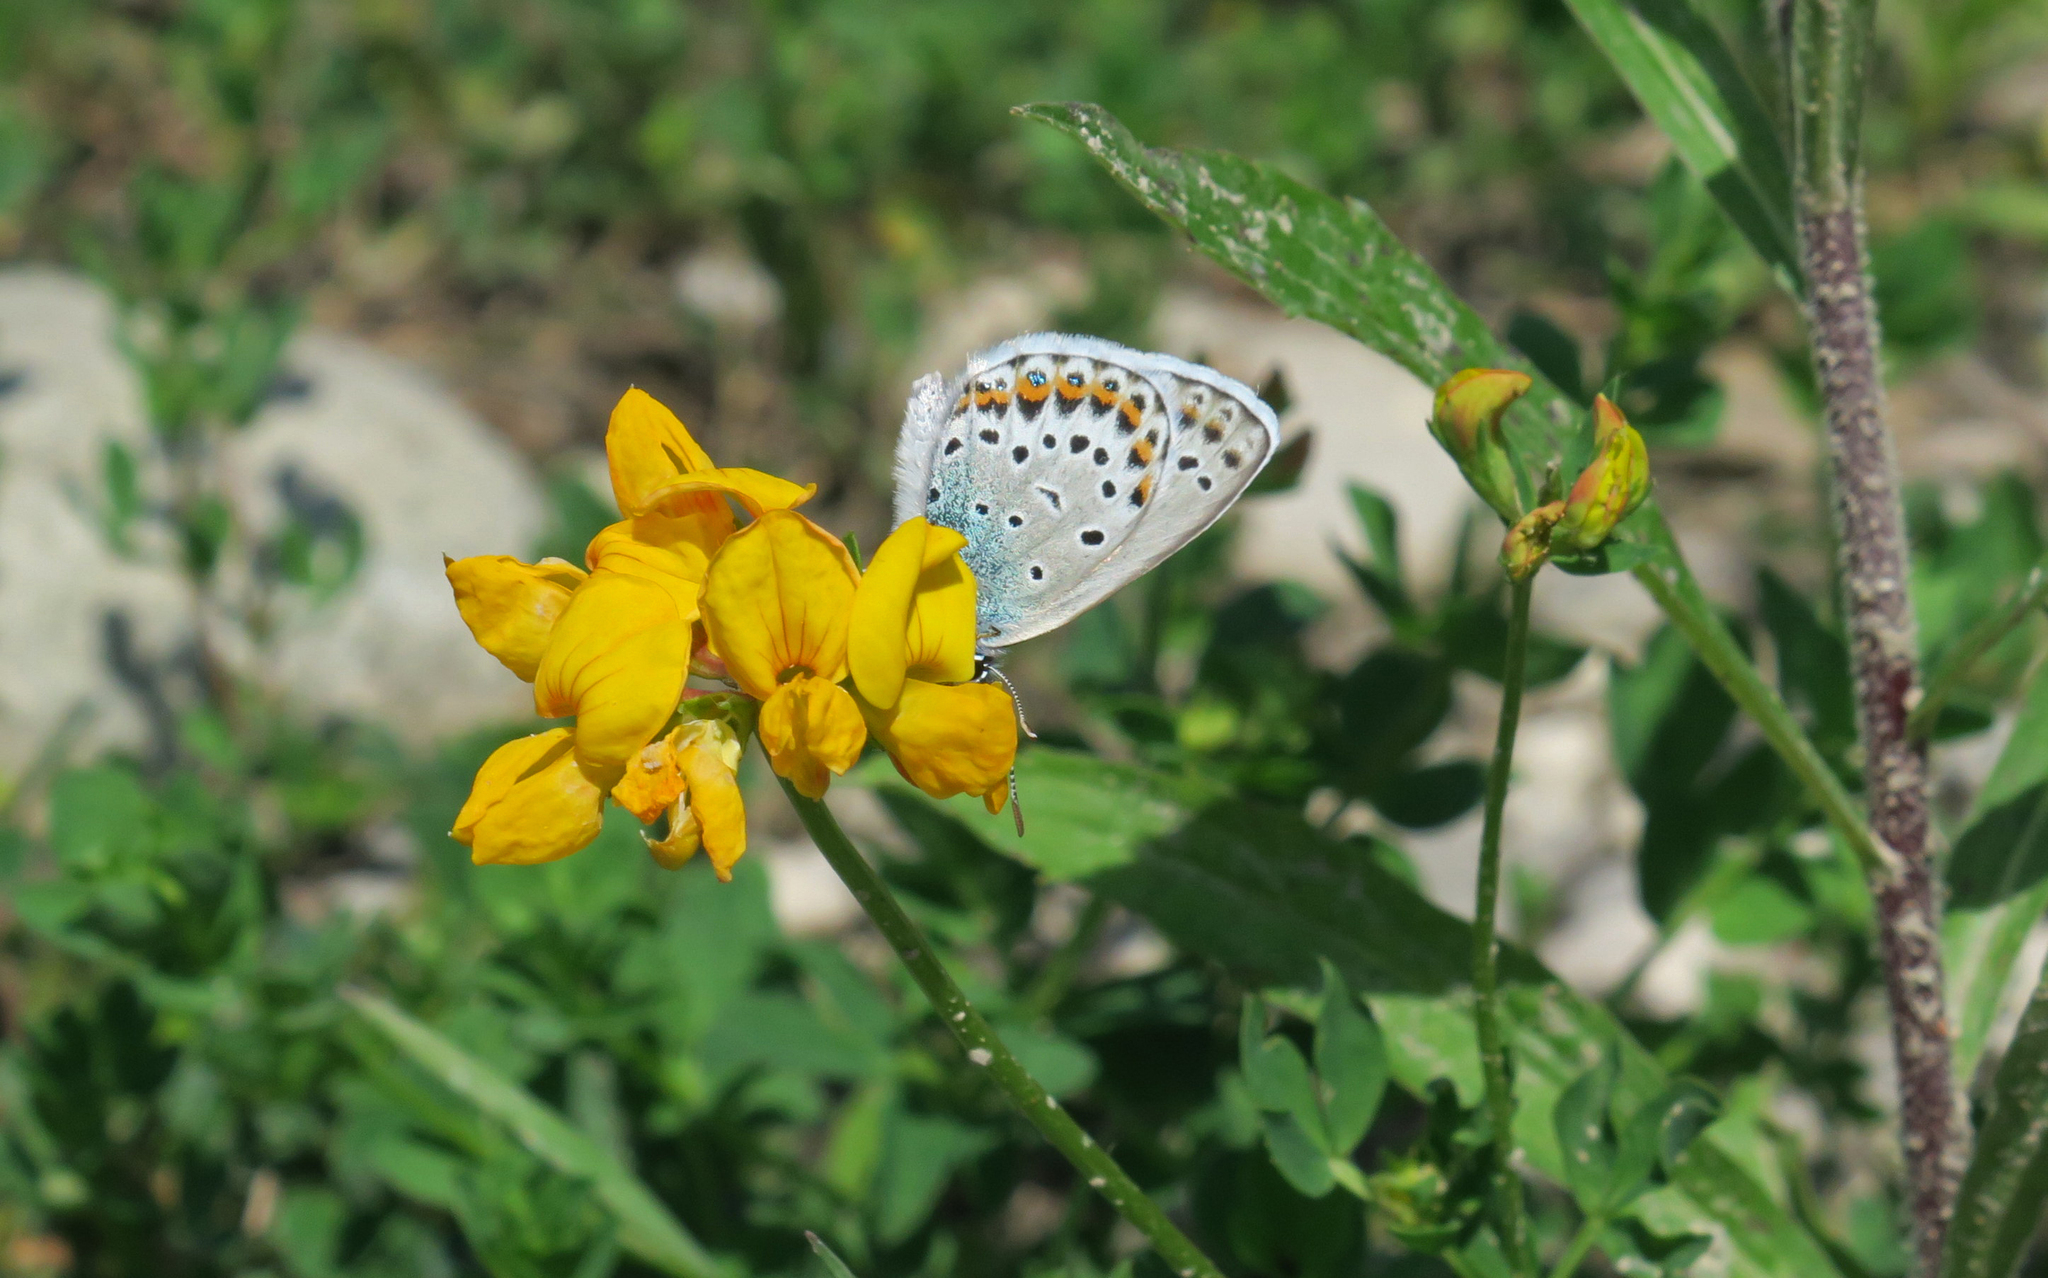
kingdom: Animalia
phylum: Arthropoda
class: Insecta
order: Lepidoptera
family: Lycaenidae
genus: Lycaeides
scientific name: Lycaeides idas
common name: Northern blue
